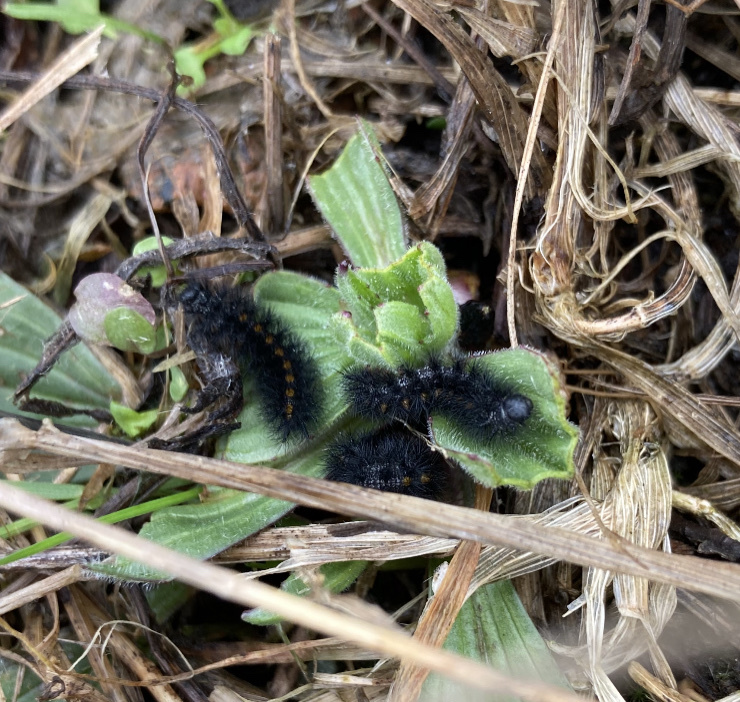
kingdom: Animalia
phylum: Arthropoda
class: Insecta
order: Lepidoptera
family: Nymphalidae
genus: Occidryas
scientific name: Occidryas editha
